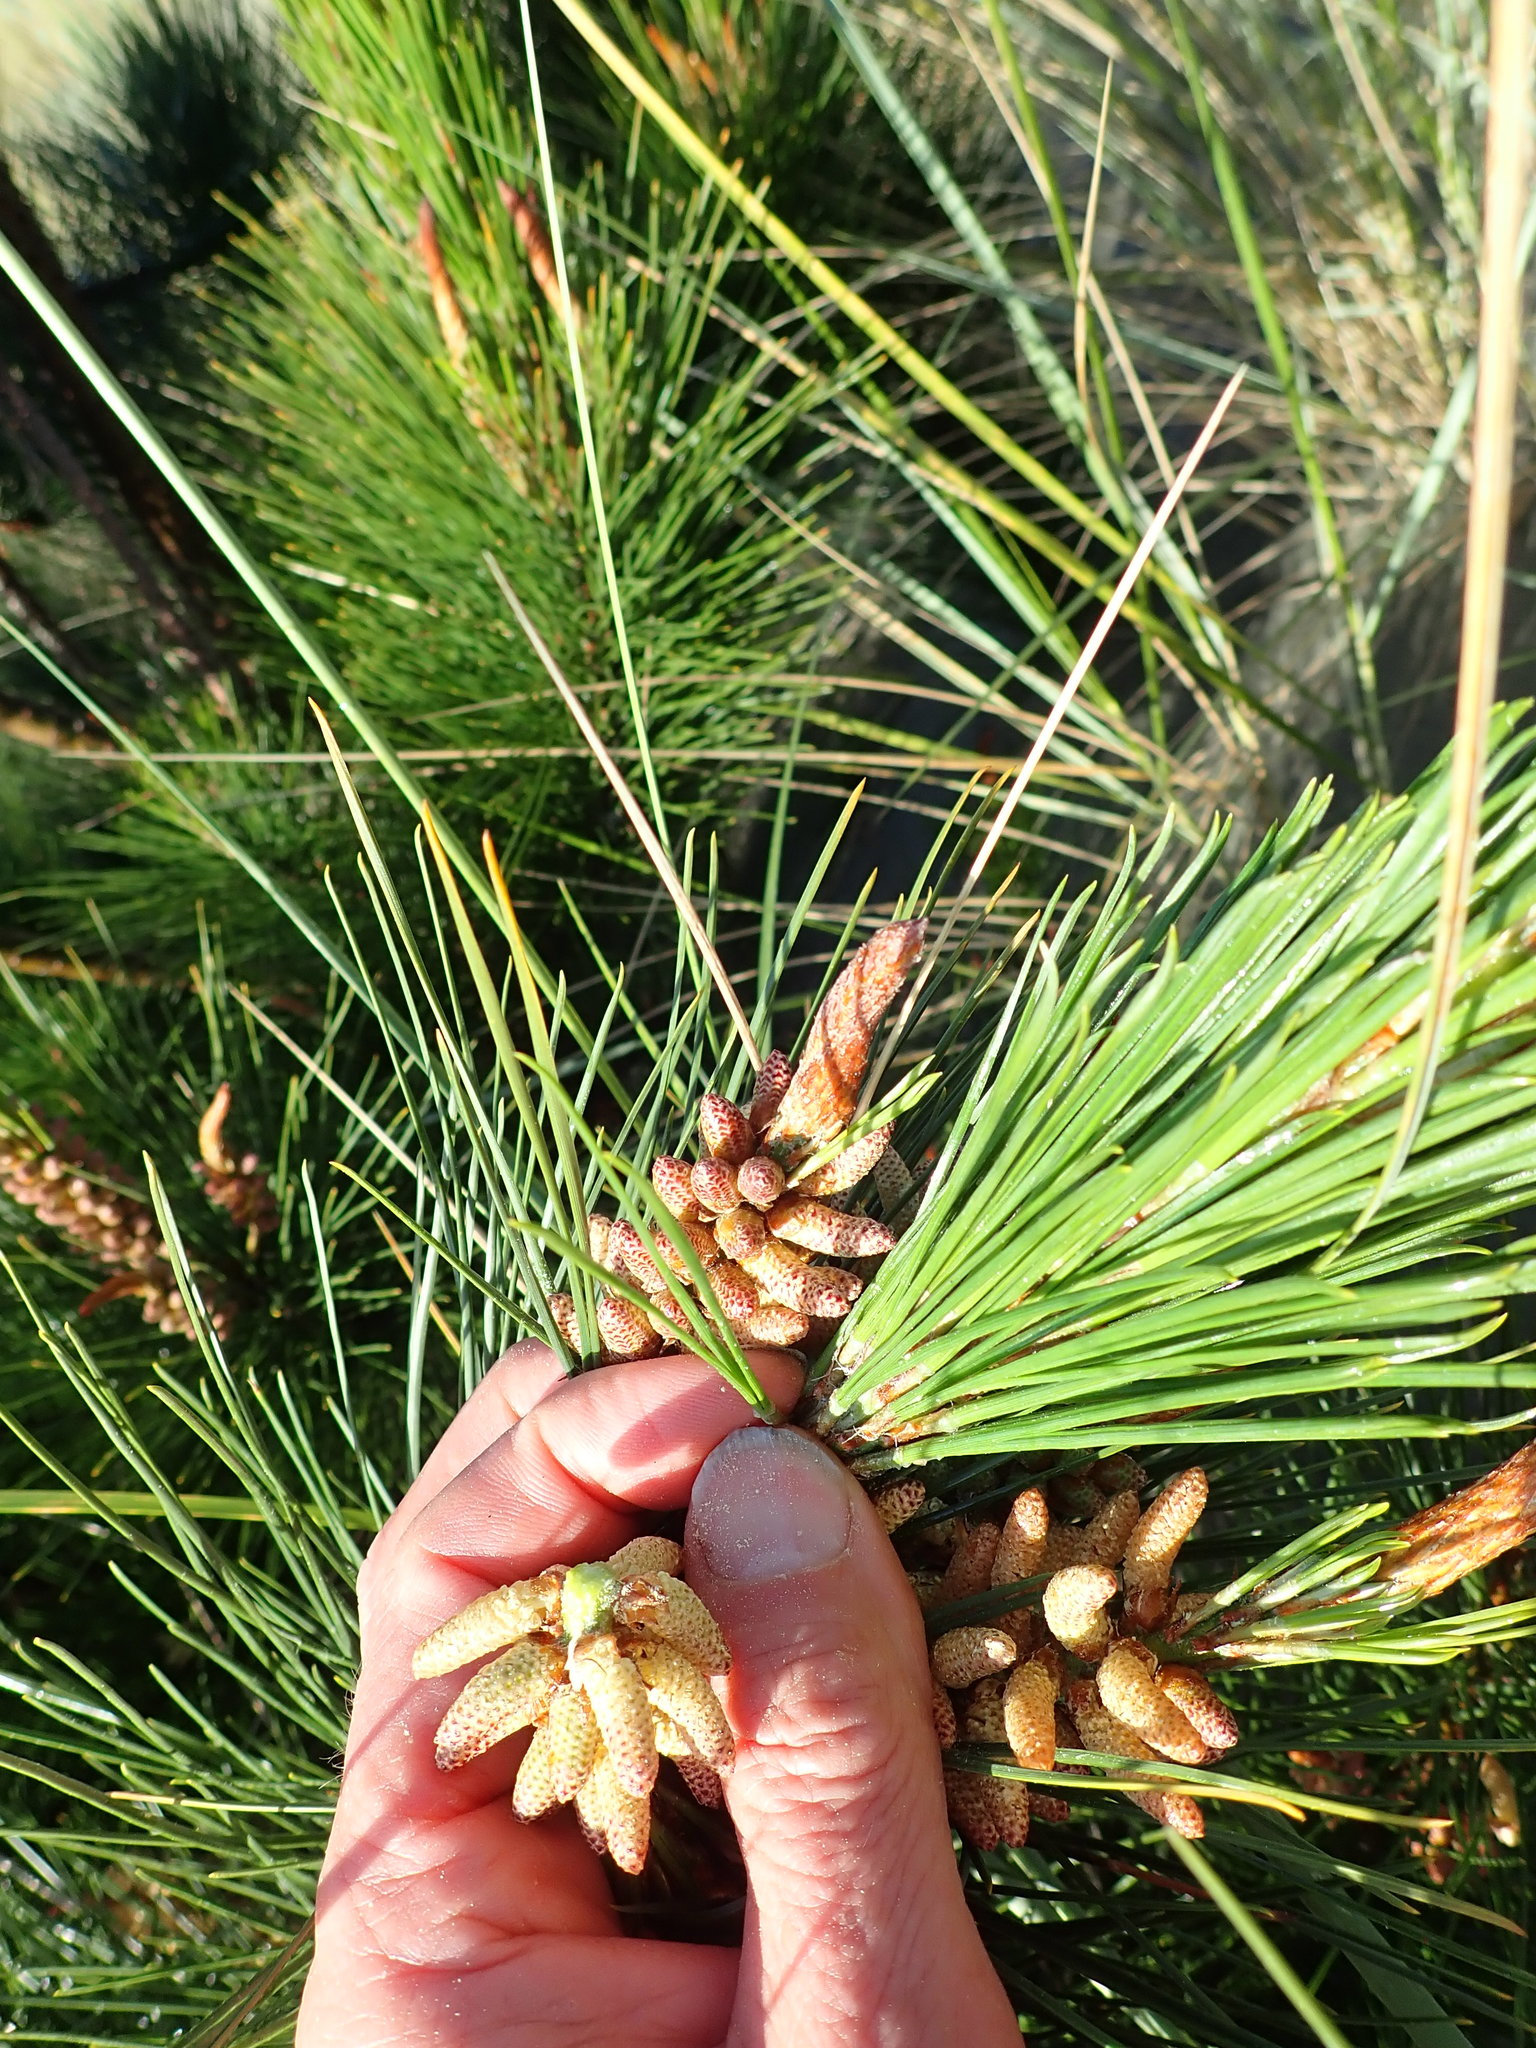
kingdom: Plantae
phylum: Tracheophyta
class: Pinopsida
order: Pinales
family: Pinaceae
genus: Pinus
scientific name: Pinus radiata
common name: Monterey pine
